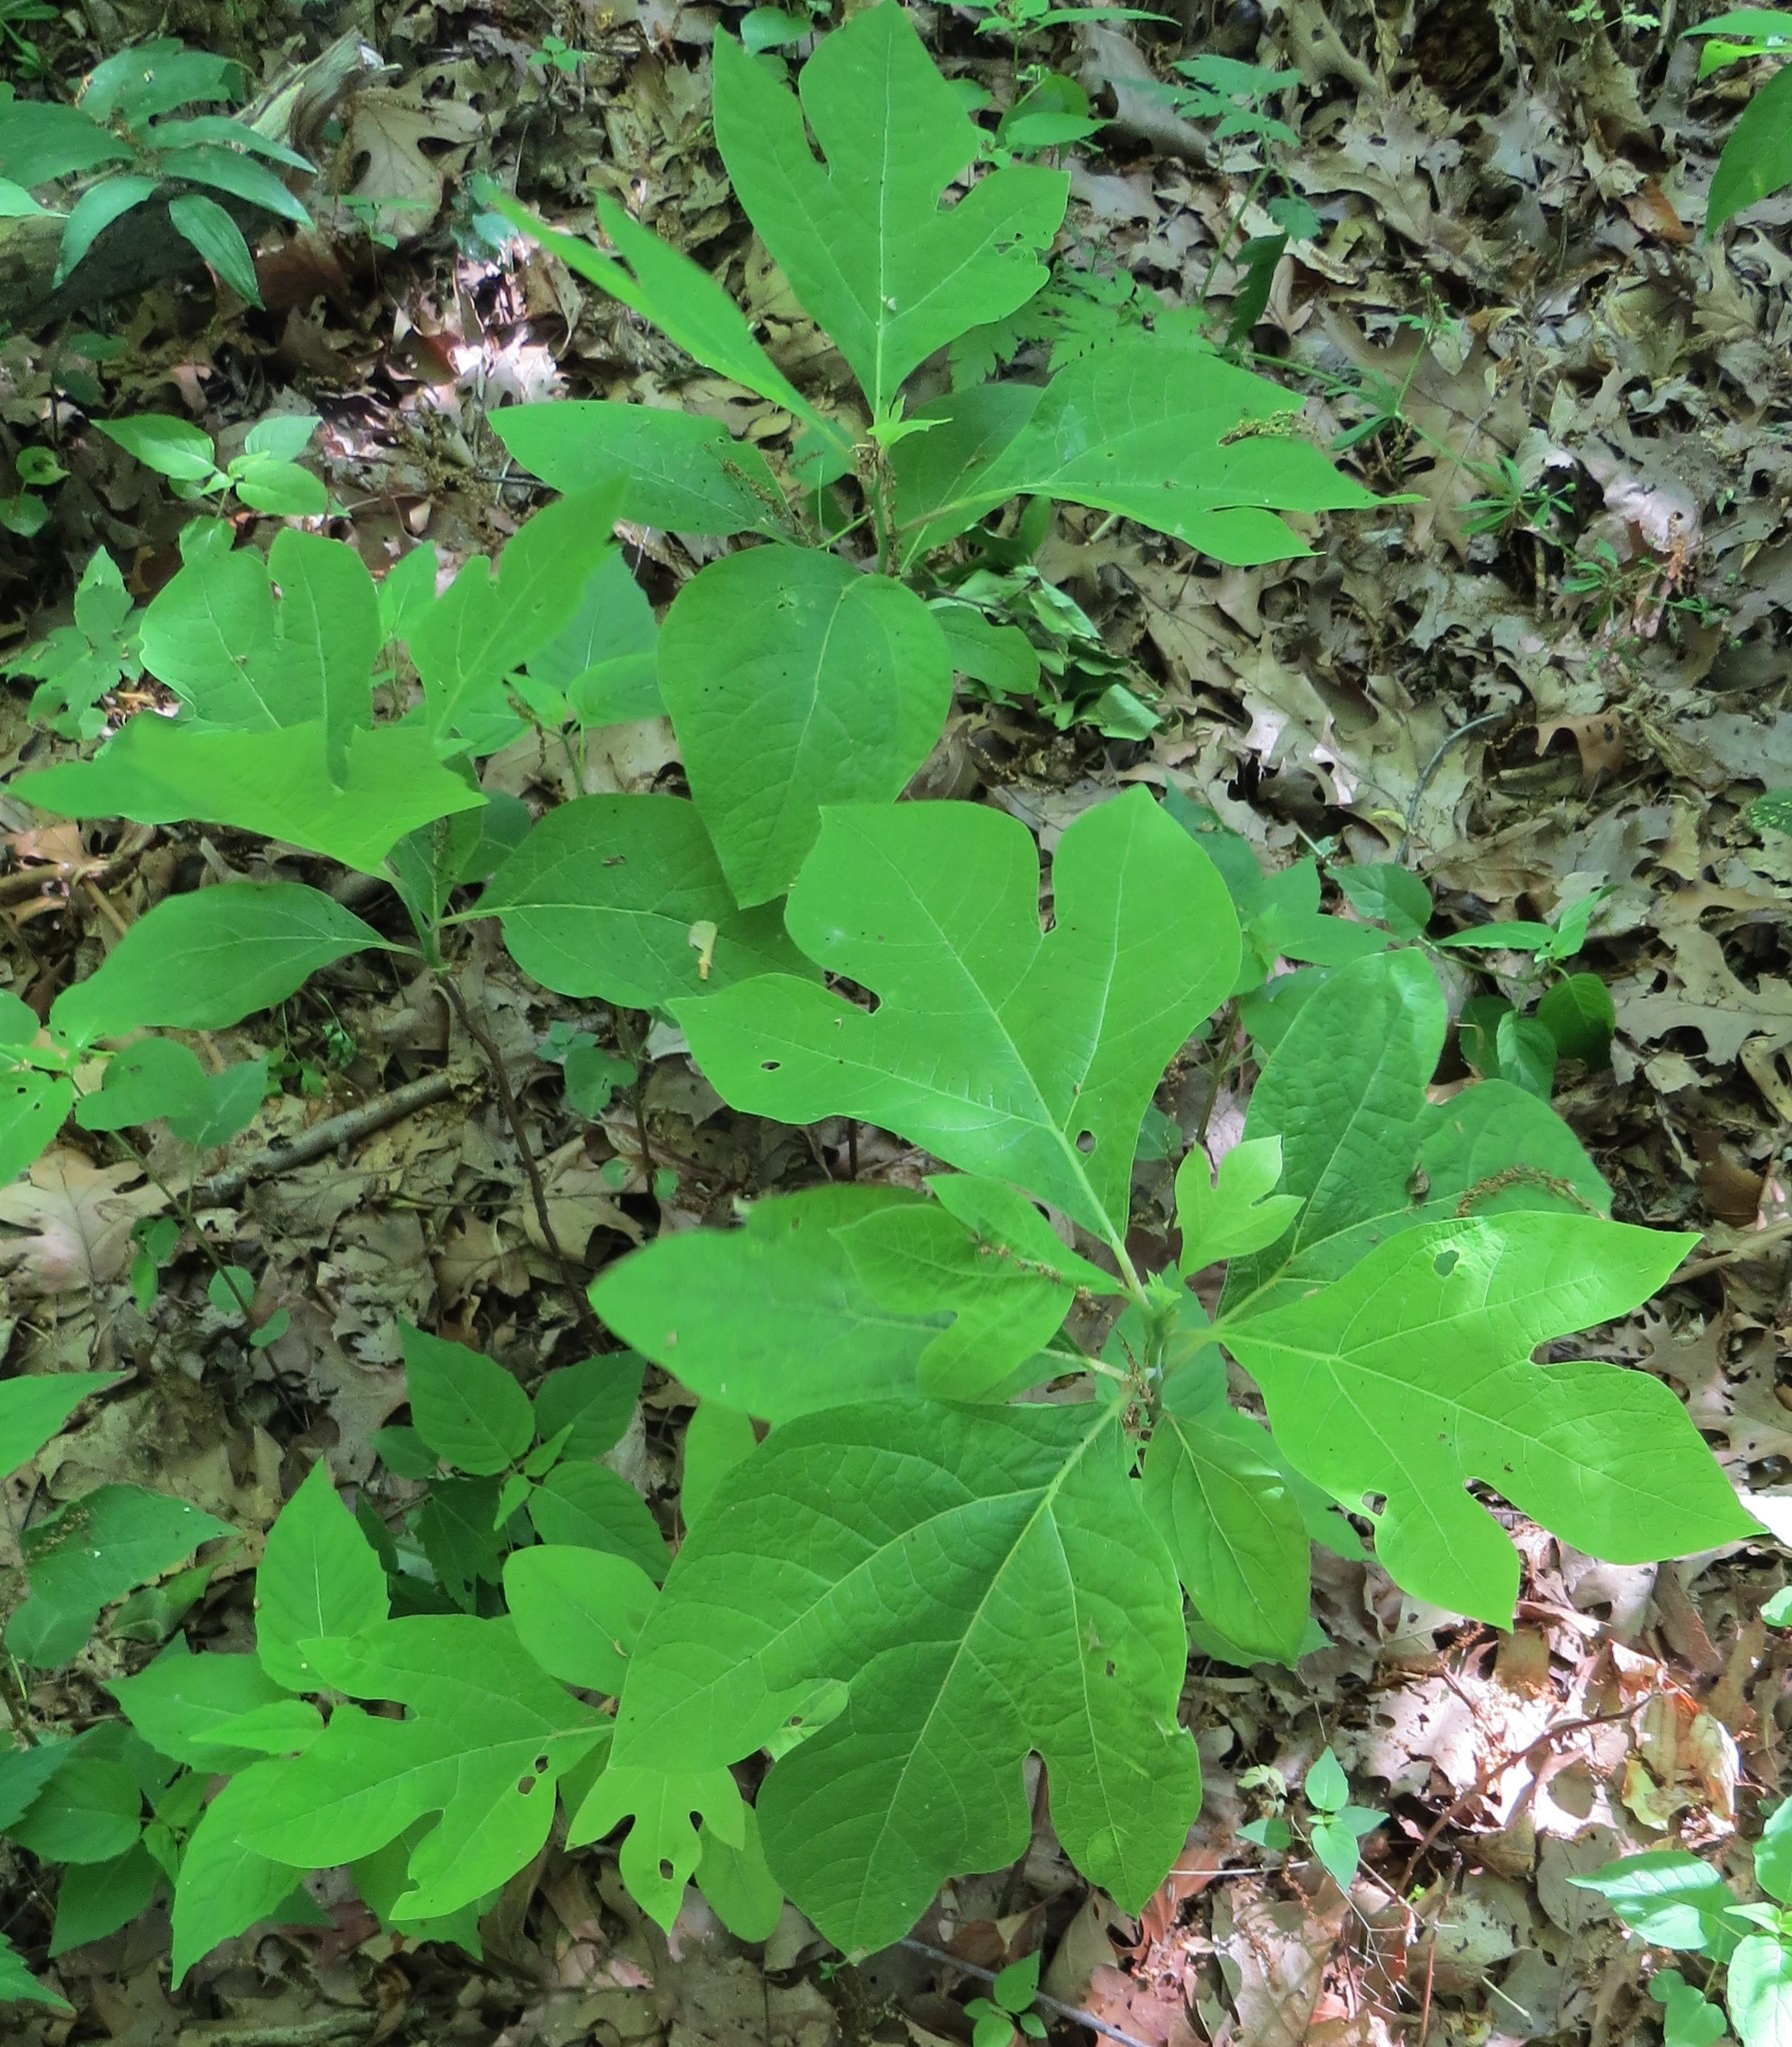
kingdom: Plantae
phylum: Tracheophyta
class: Magnoliopsida
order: Laurales
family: Lauraceae
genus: Sassafras
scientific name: Sassafras albidum
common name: Sassafras
